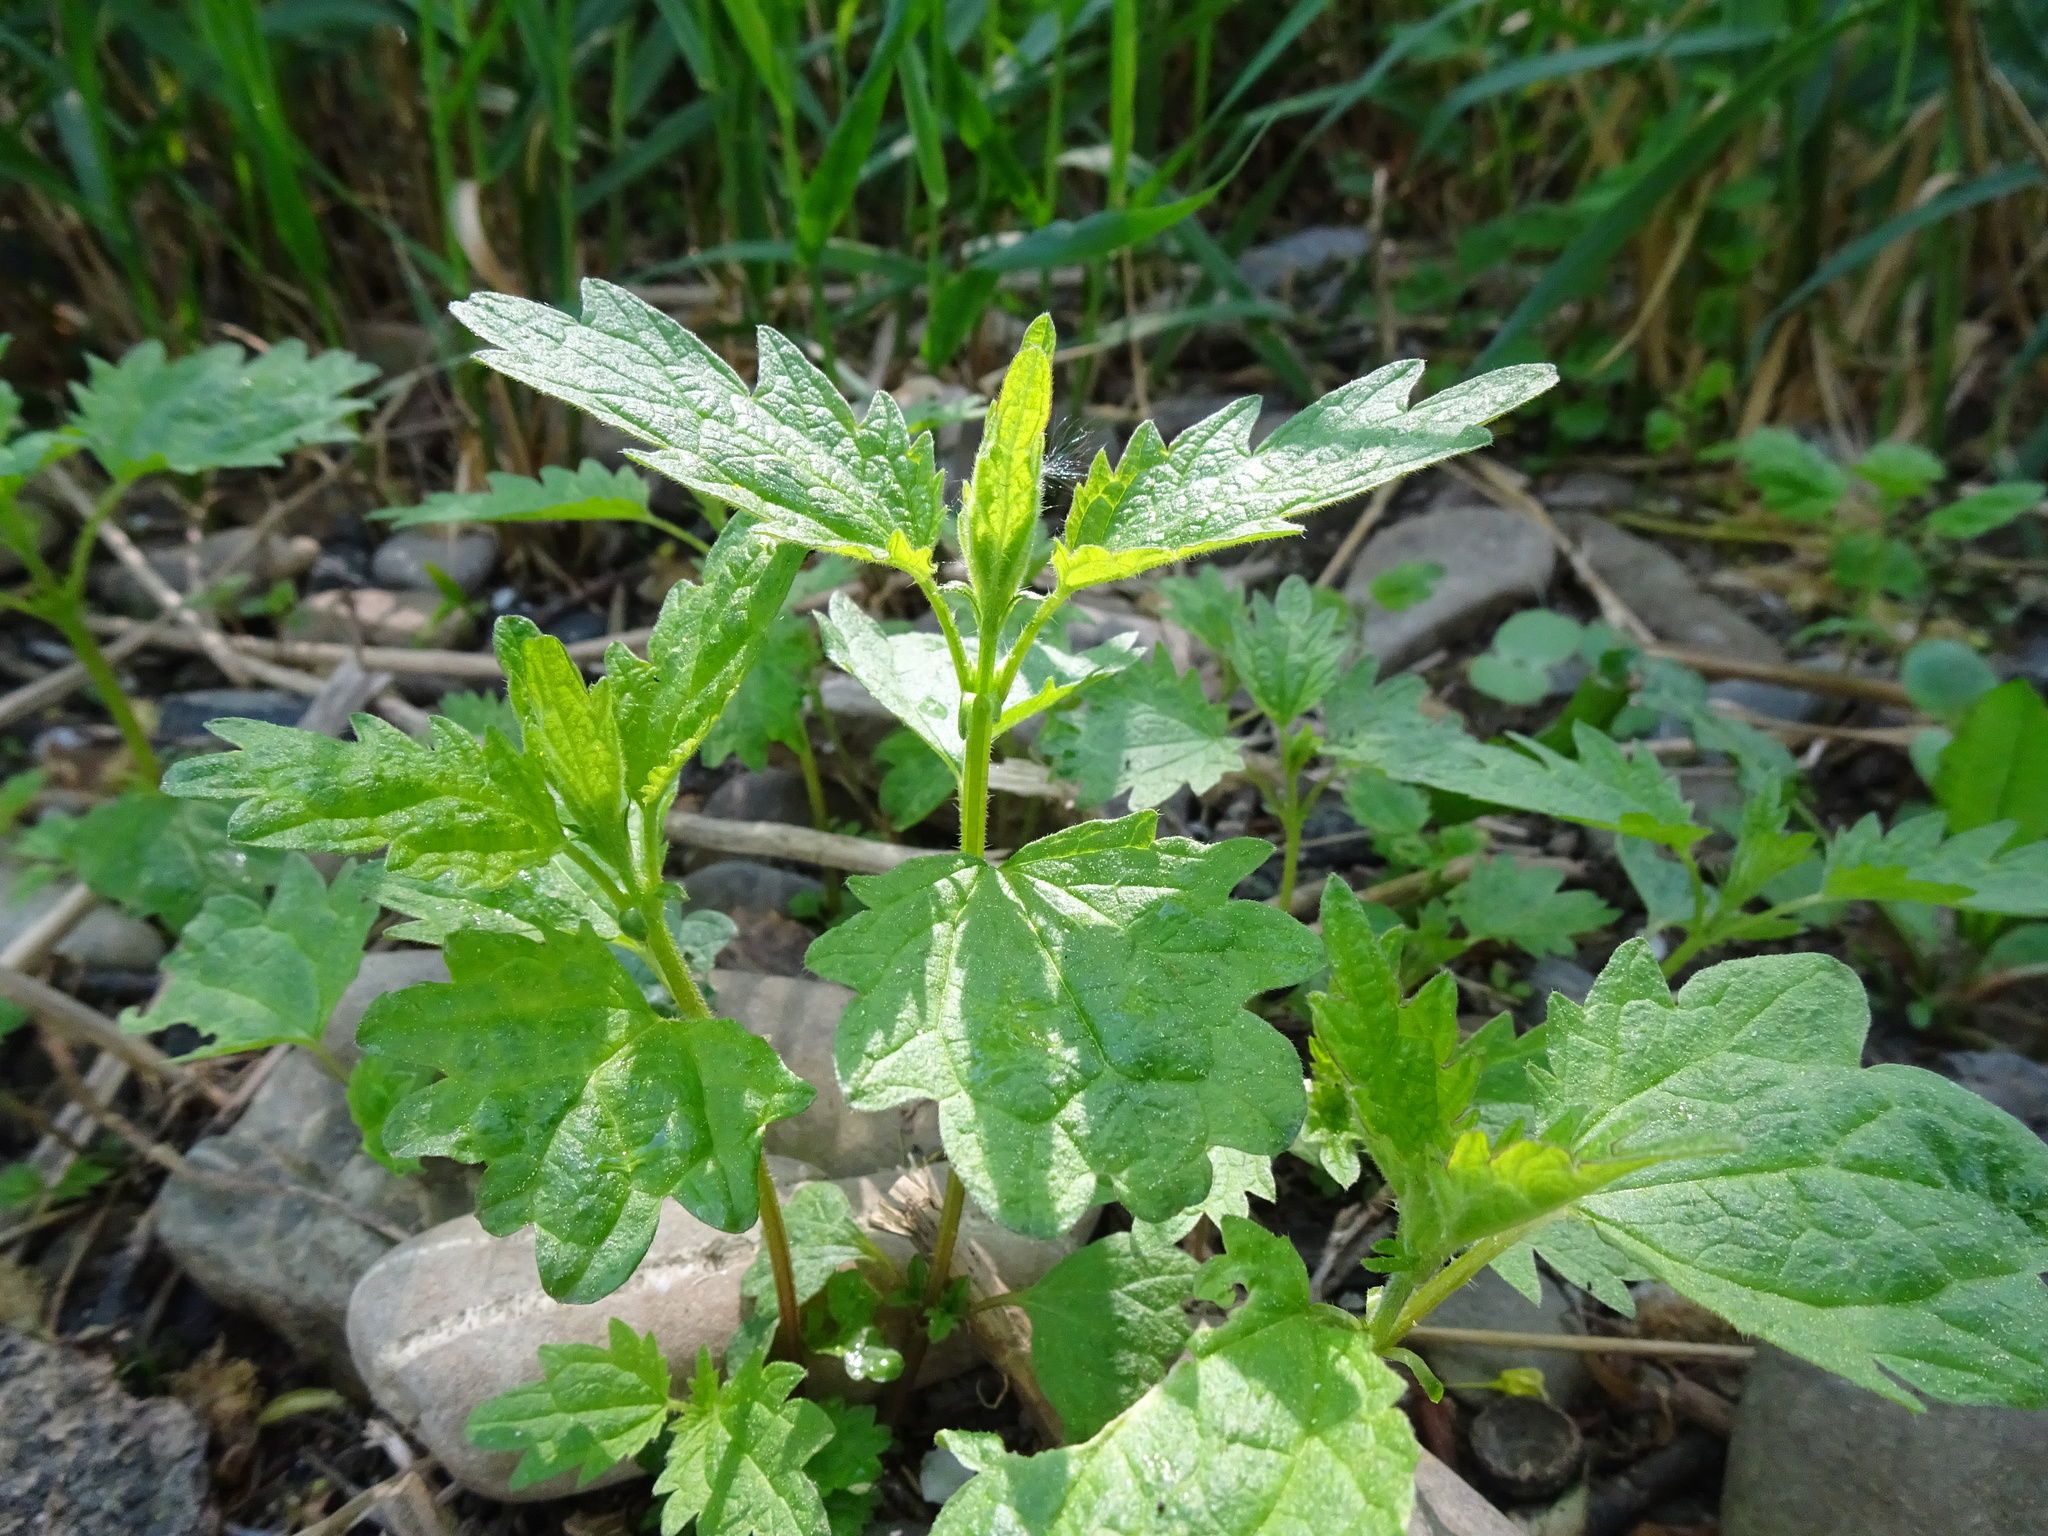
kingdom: Plantae
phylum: Tracheophyta
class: Magnoliopsida
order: Rosales
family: Urticaceae
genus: Urtica
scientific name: Urtica dioica
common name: Common nettle
